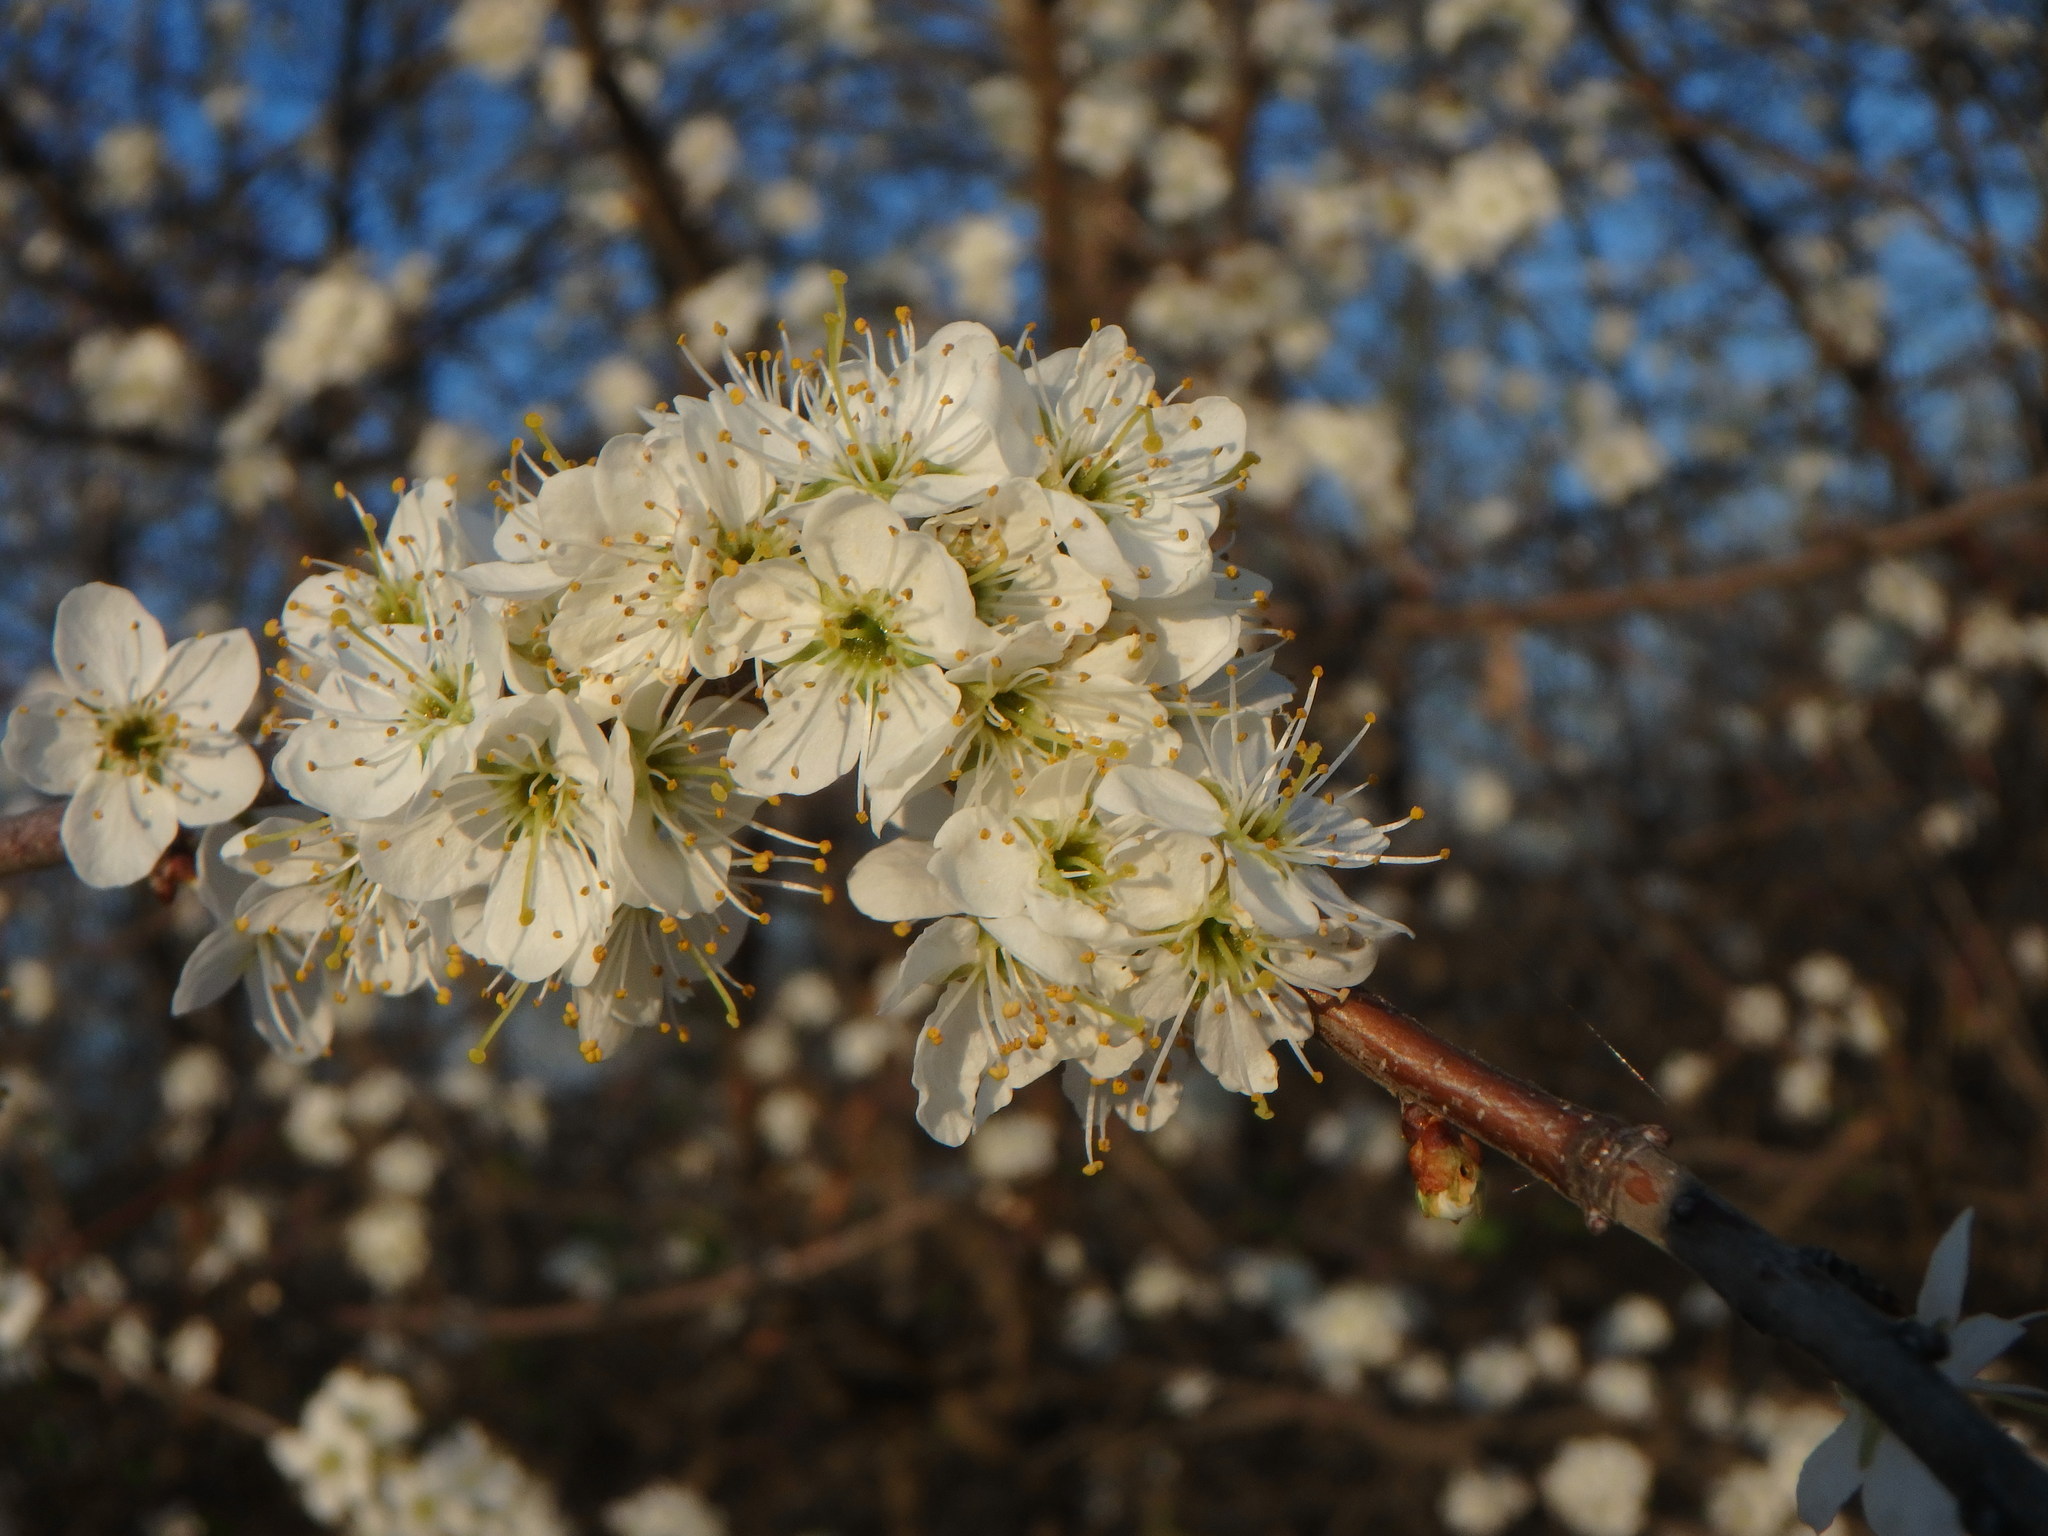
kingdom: Plantae
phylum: Tracheophyta
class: Magnoliopsida
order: Rosales
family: Rosaceae
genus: Prunus
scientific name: Prunus spinosa
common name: Blackthorn
